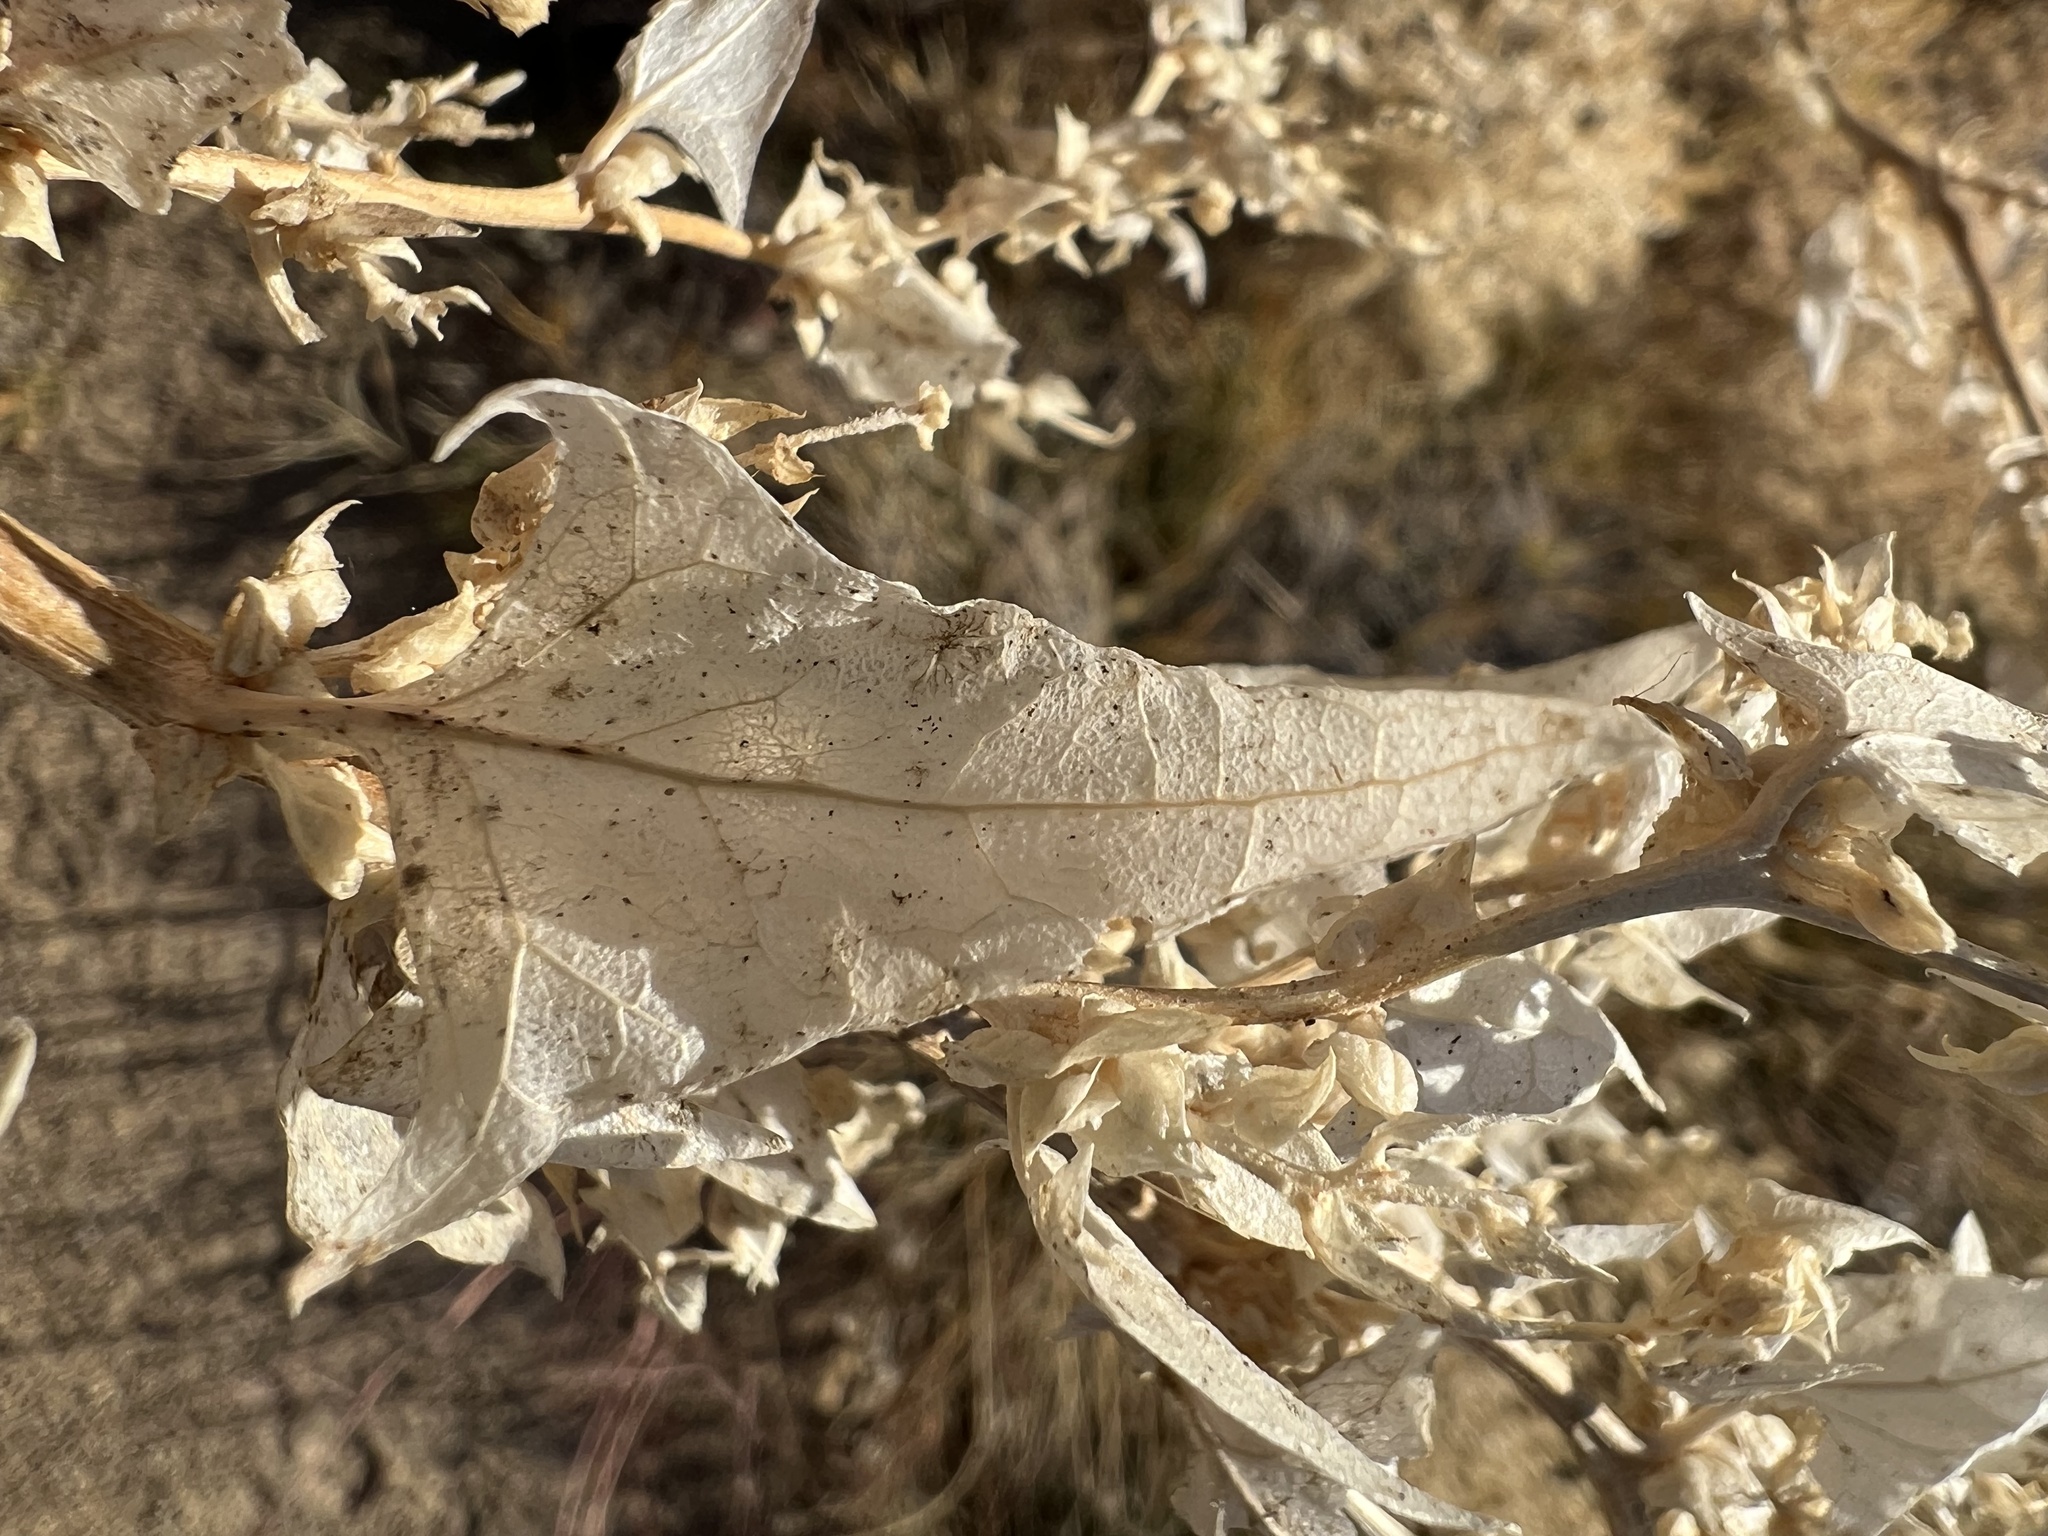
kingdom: Plantae
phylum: Tracheophyta
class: Magnoliopsida
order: Caryophyllales
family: Amaranthaceae
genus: Stutzia
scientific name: Stutzia covillei
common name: Coville's orach
